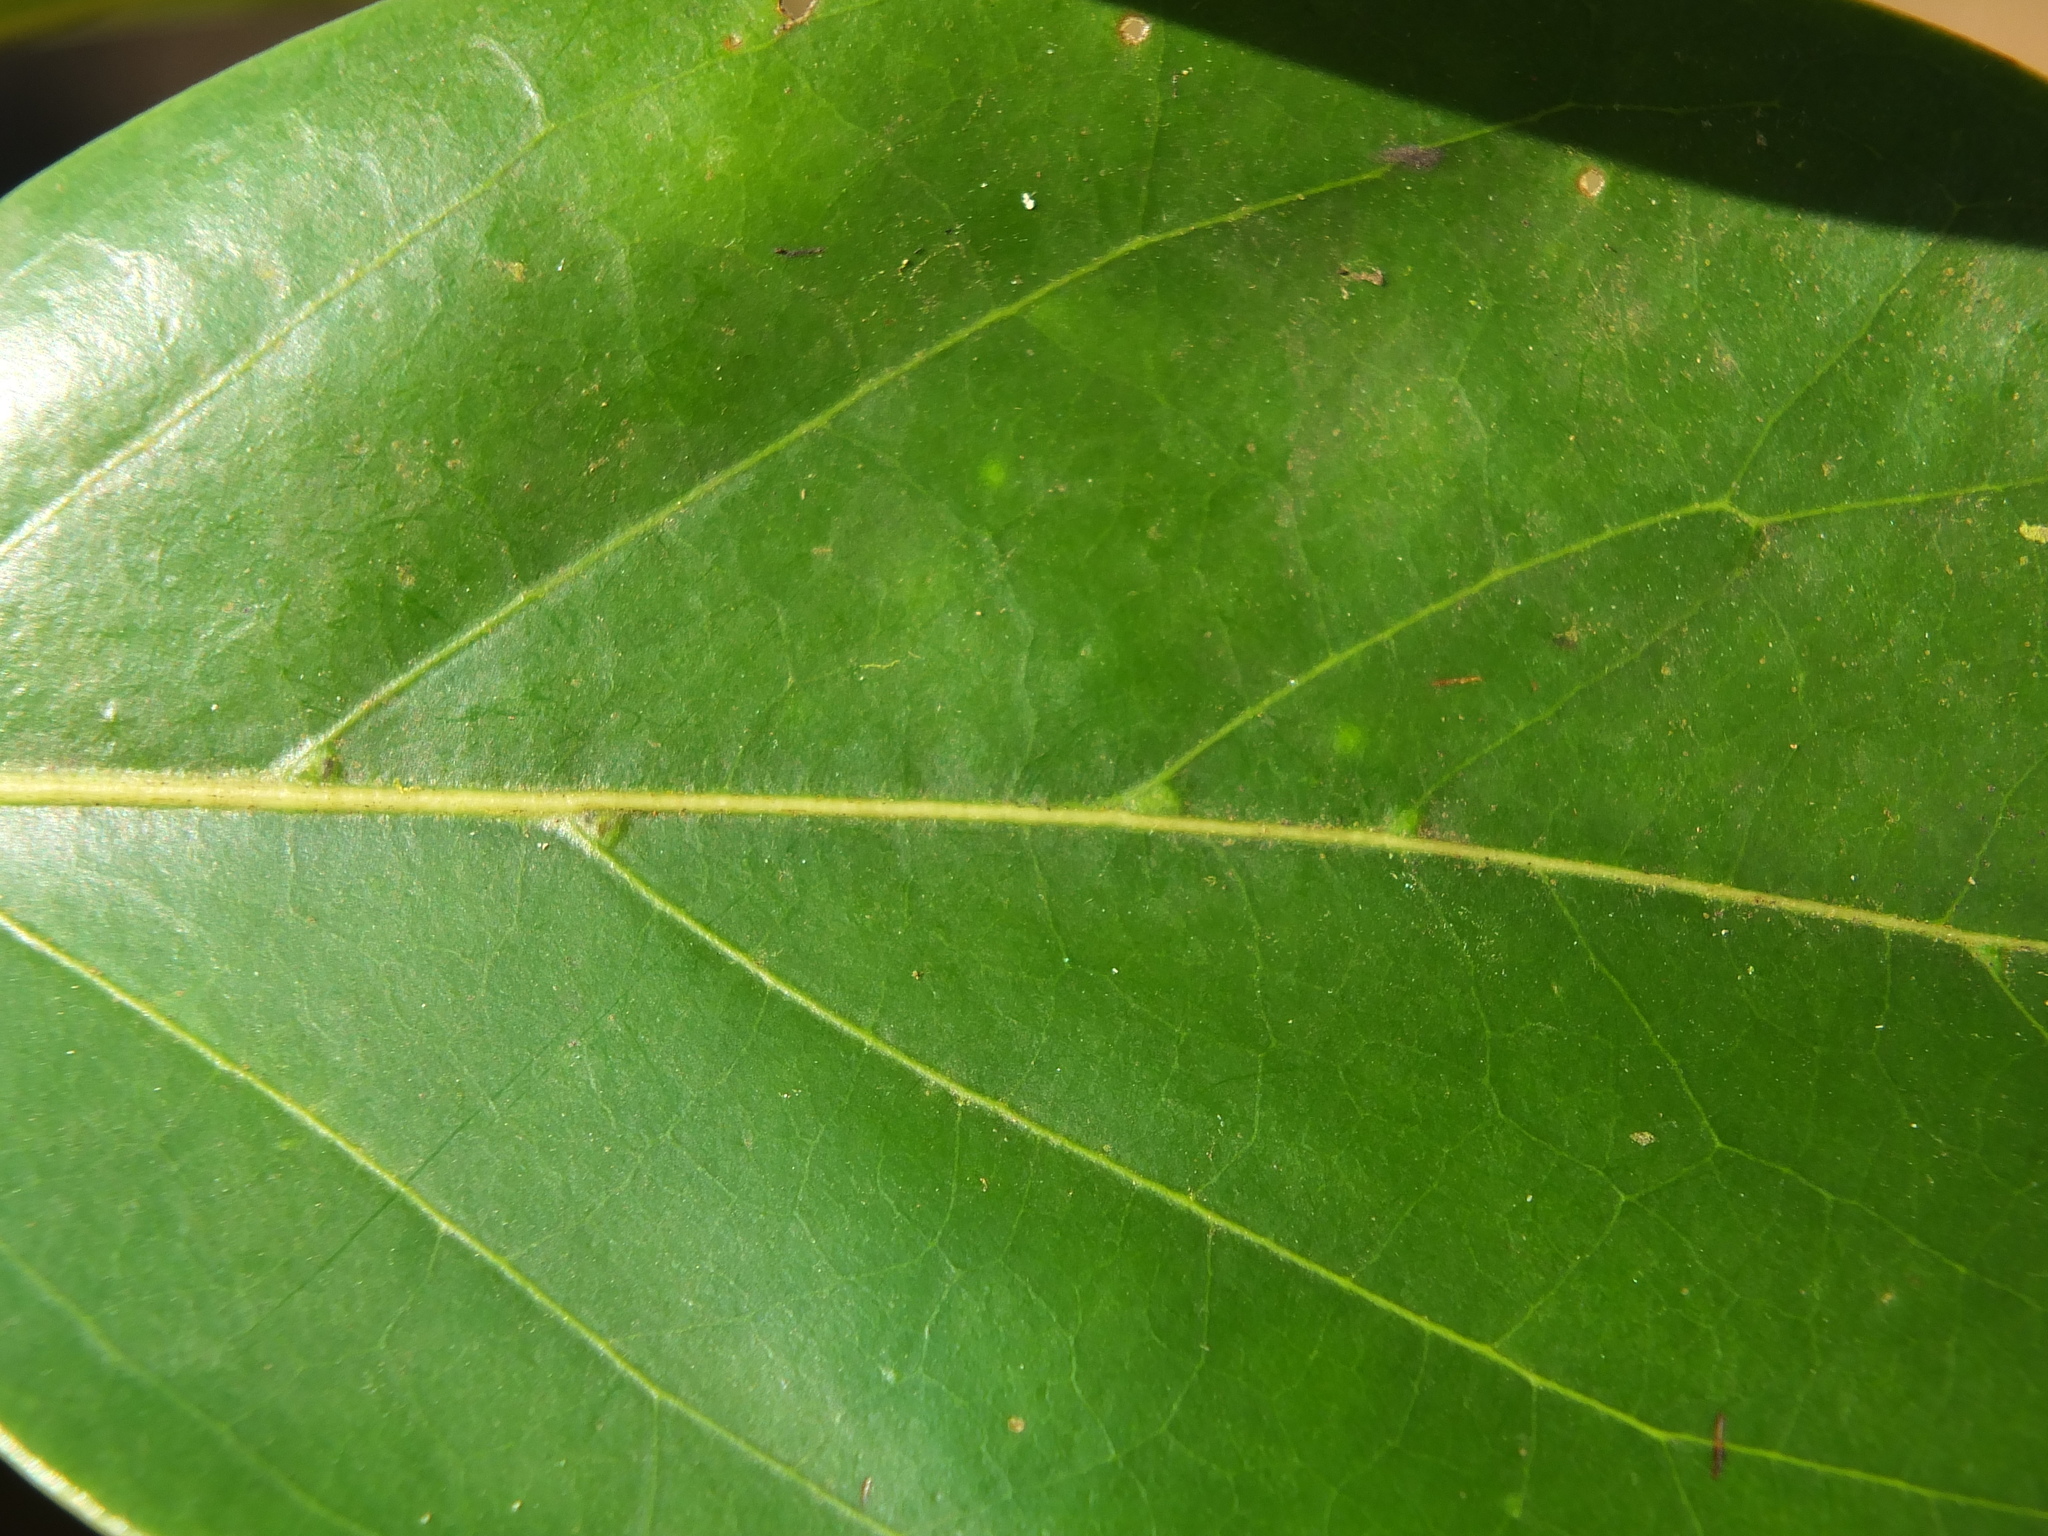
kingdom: Plantae
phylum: Tracheophyta
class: Magnoliopsida
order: Gentianales
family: Rubiaceae
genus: Psydrax
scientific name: Psydrax umbellatus
